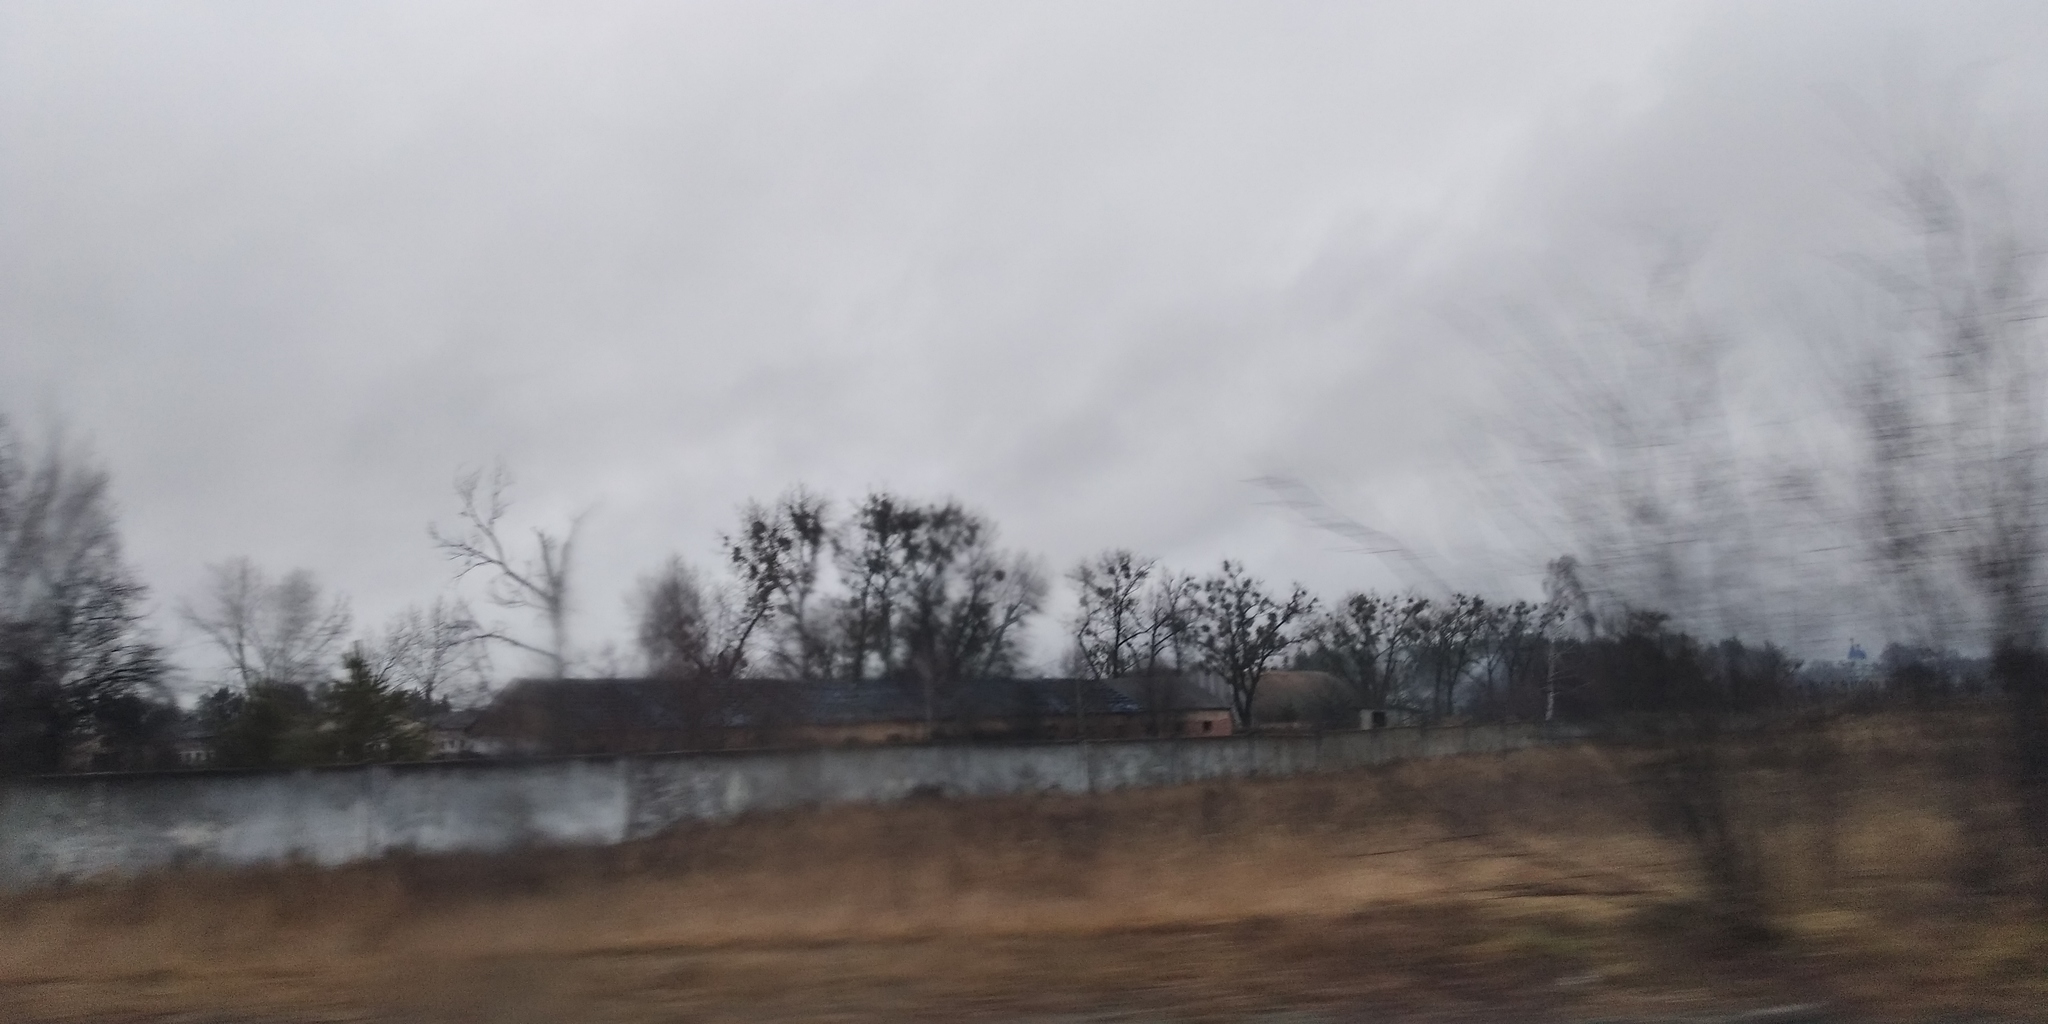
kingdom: Plantae
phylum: Tracheophyta
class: Magnoliopsida
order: Santalales
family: Viscaceae
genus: Viscum
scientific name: Viscum album
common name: Mistletoe
